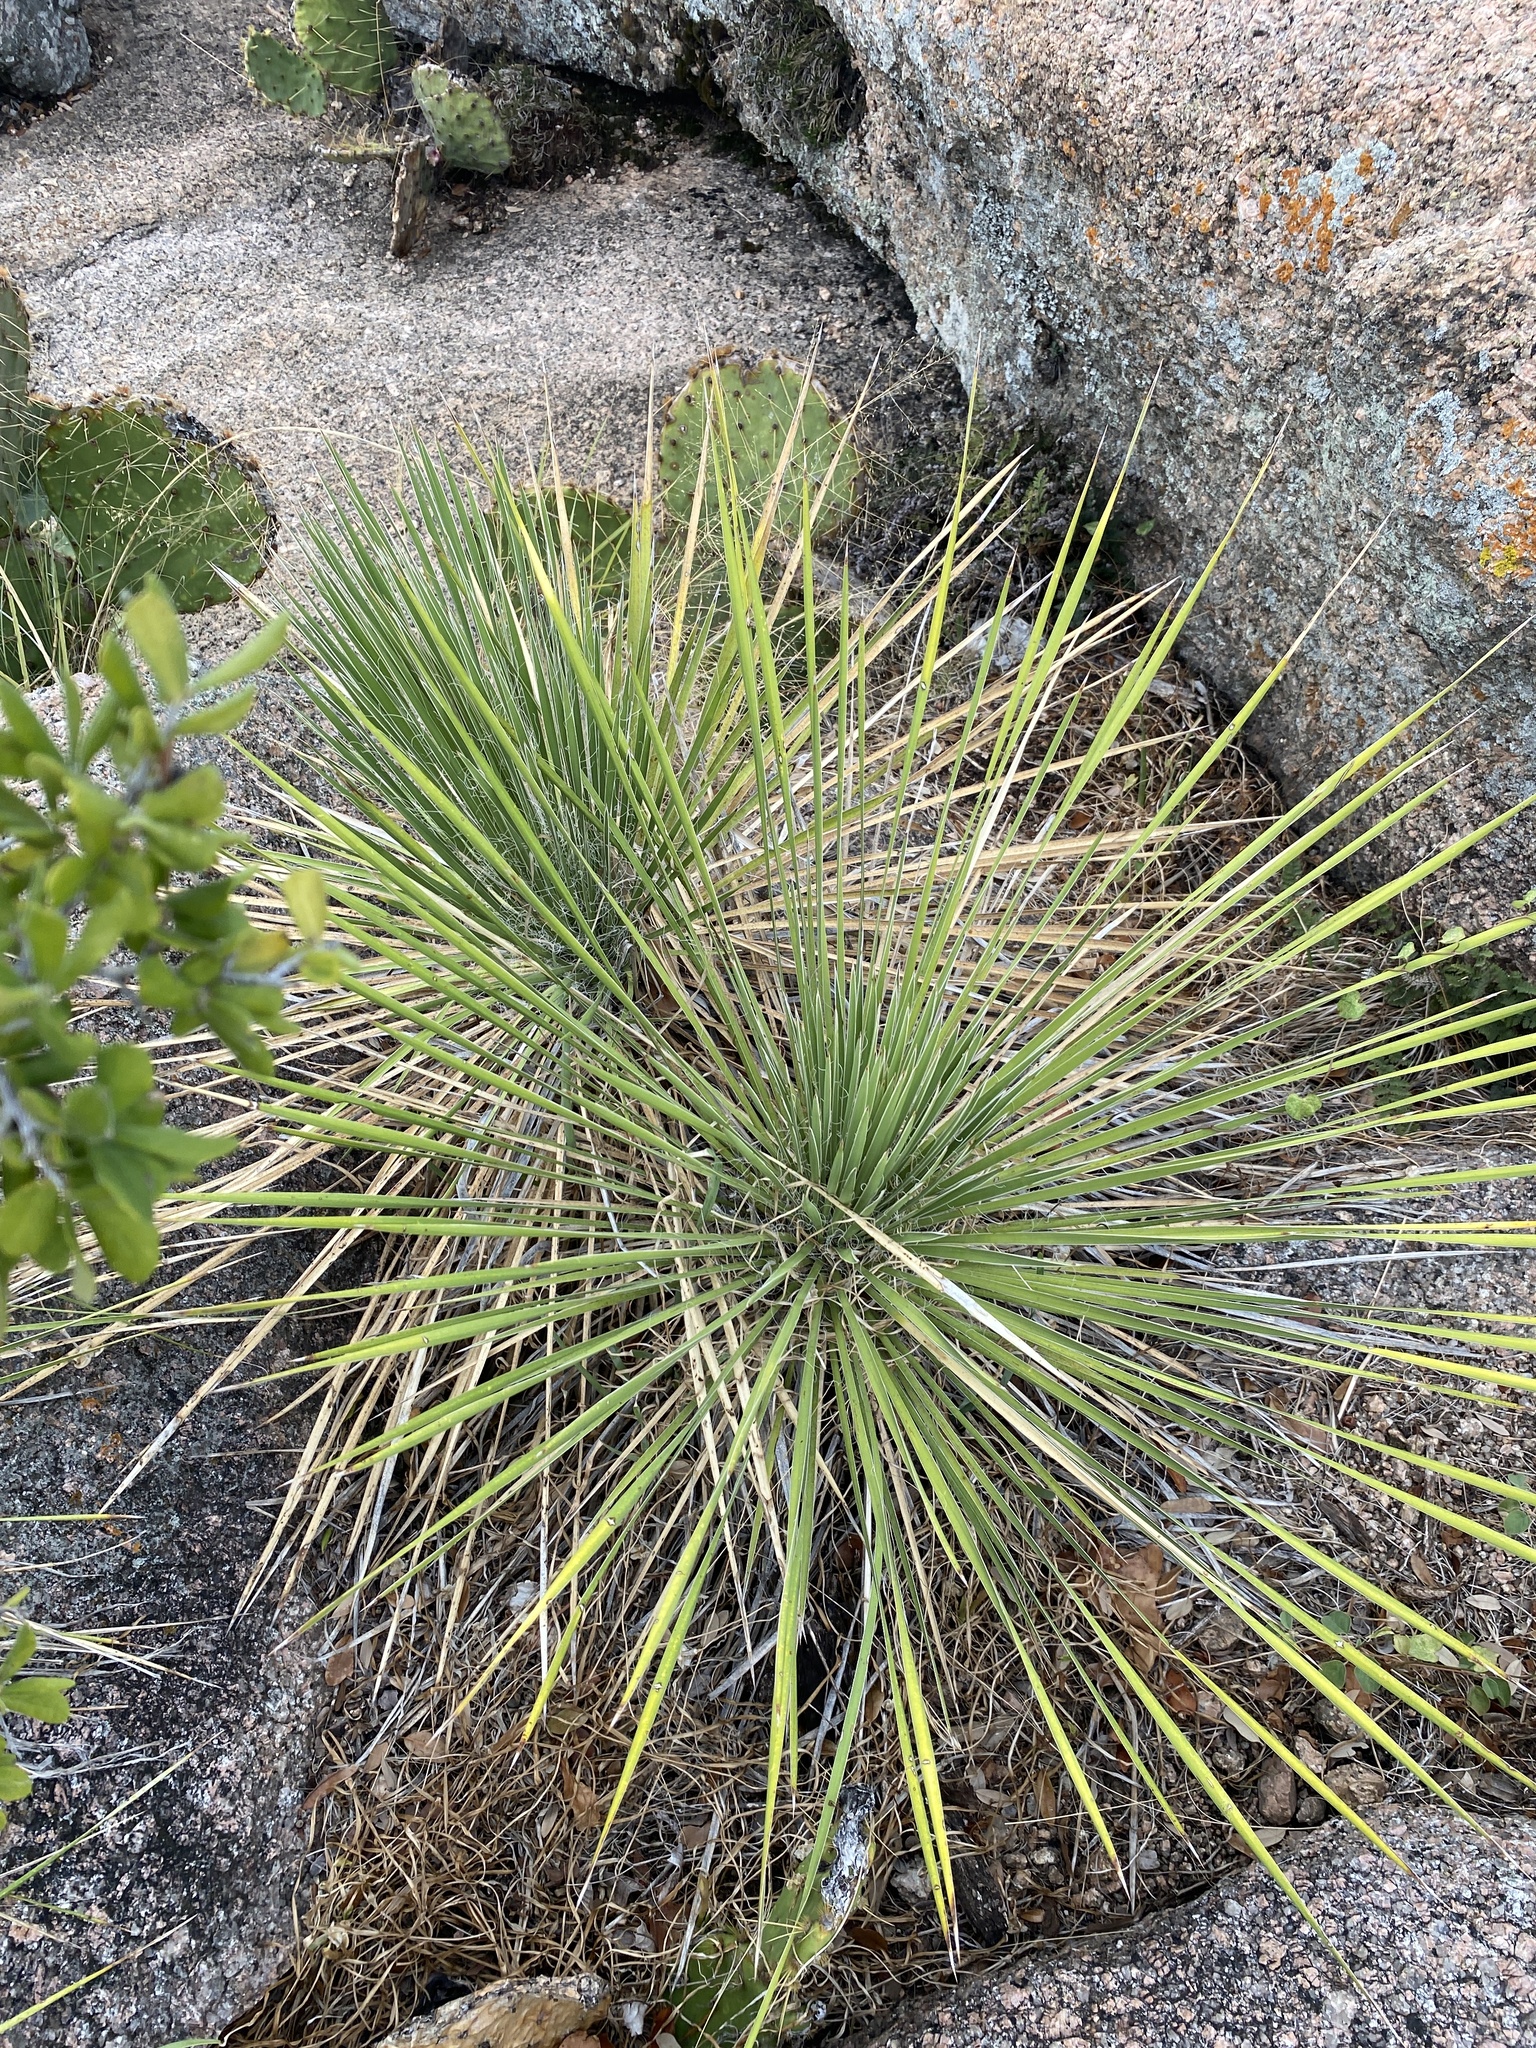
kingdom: Plantae
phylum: Tracheophyta
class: Liliopsida
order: Asparagales
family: Asparagaceae
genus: Yucca
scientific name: Yucca constricta
